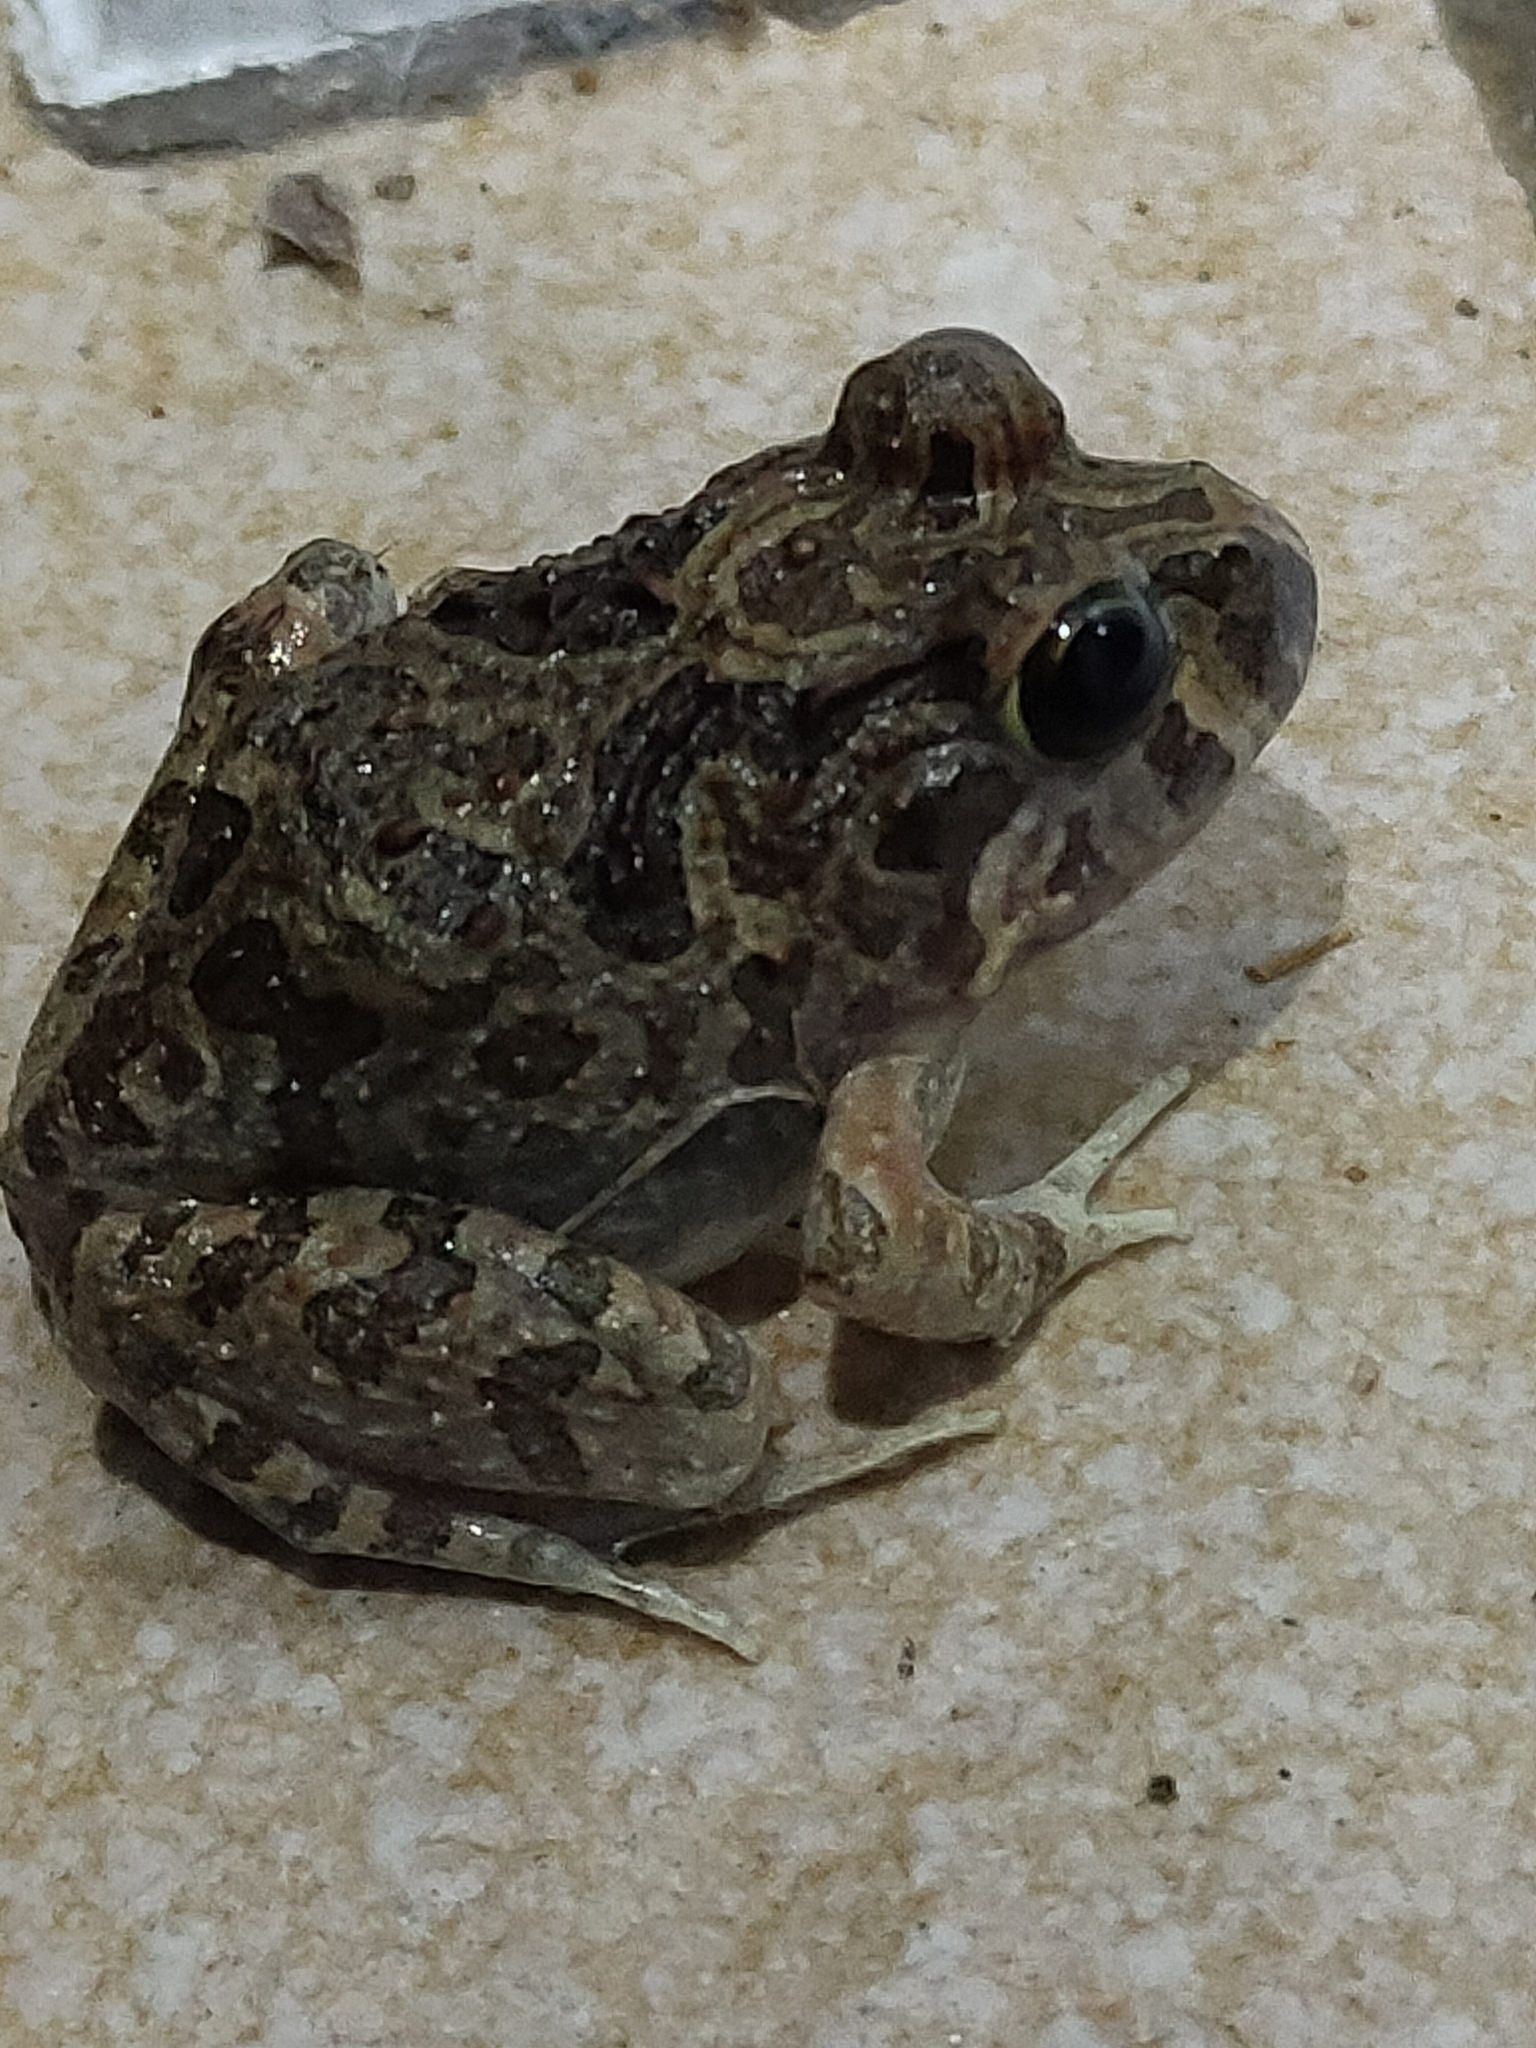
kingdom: Animalia
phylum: Chordata
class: Amphibia
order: Anura
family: Limnodynastidae
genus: Platyplectrum
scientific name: Platyplectrum ornatum
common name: Ornate burrowing frog
